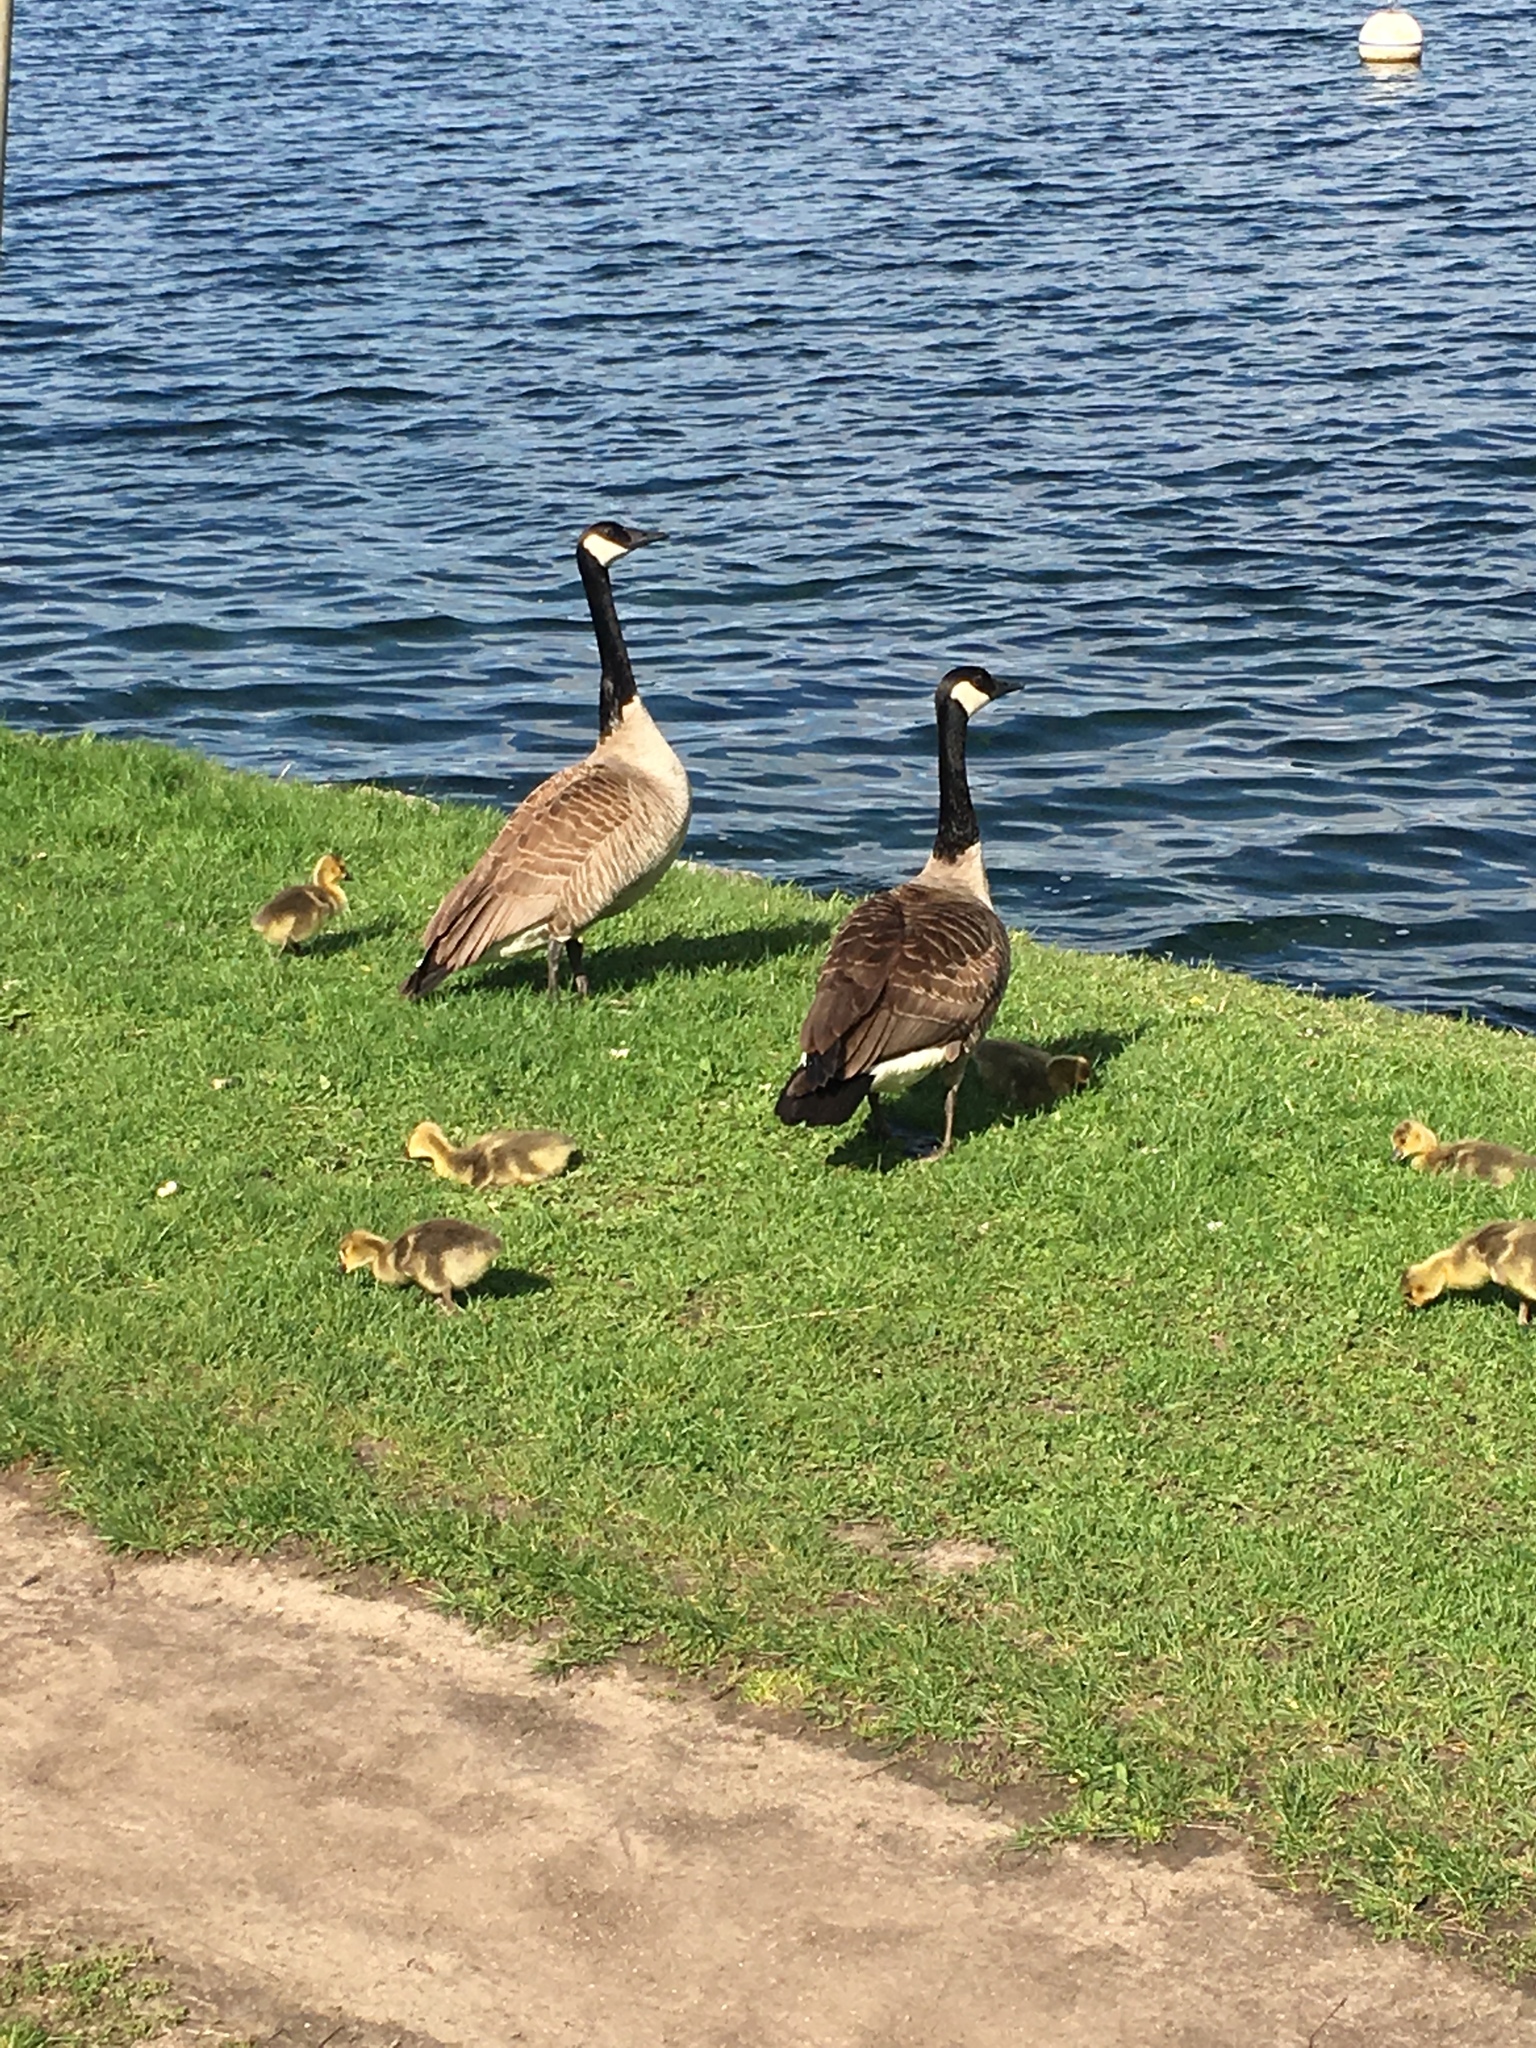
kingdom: Animalia
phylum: Chordata
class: Aves
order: Anseriformes
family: Anatidae
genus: Branta
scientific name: Branta canadensis
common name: Canada goose
